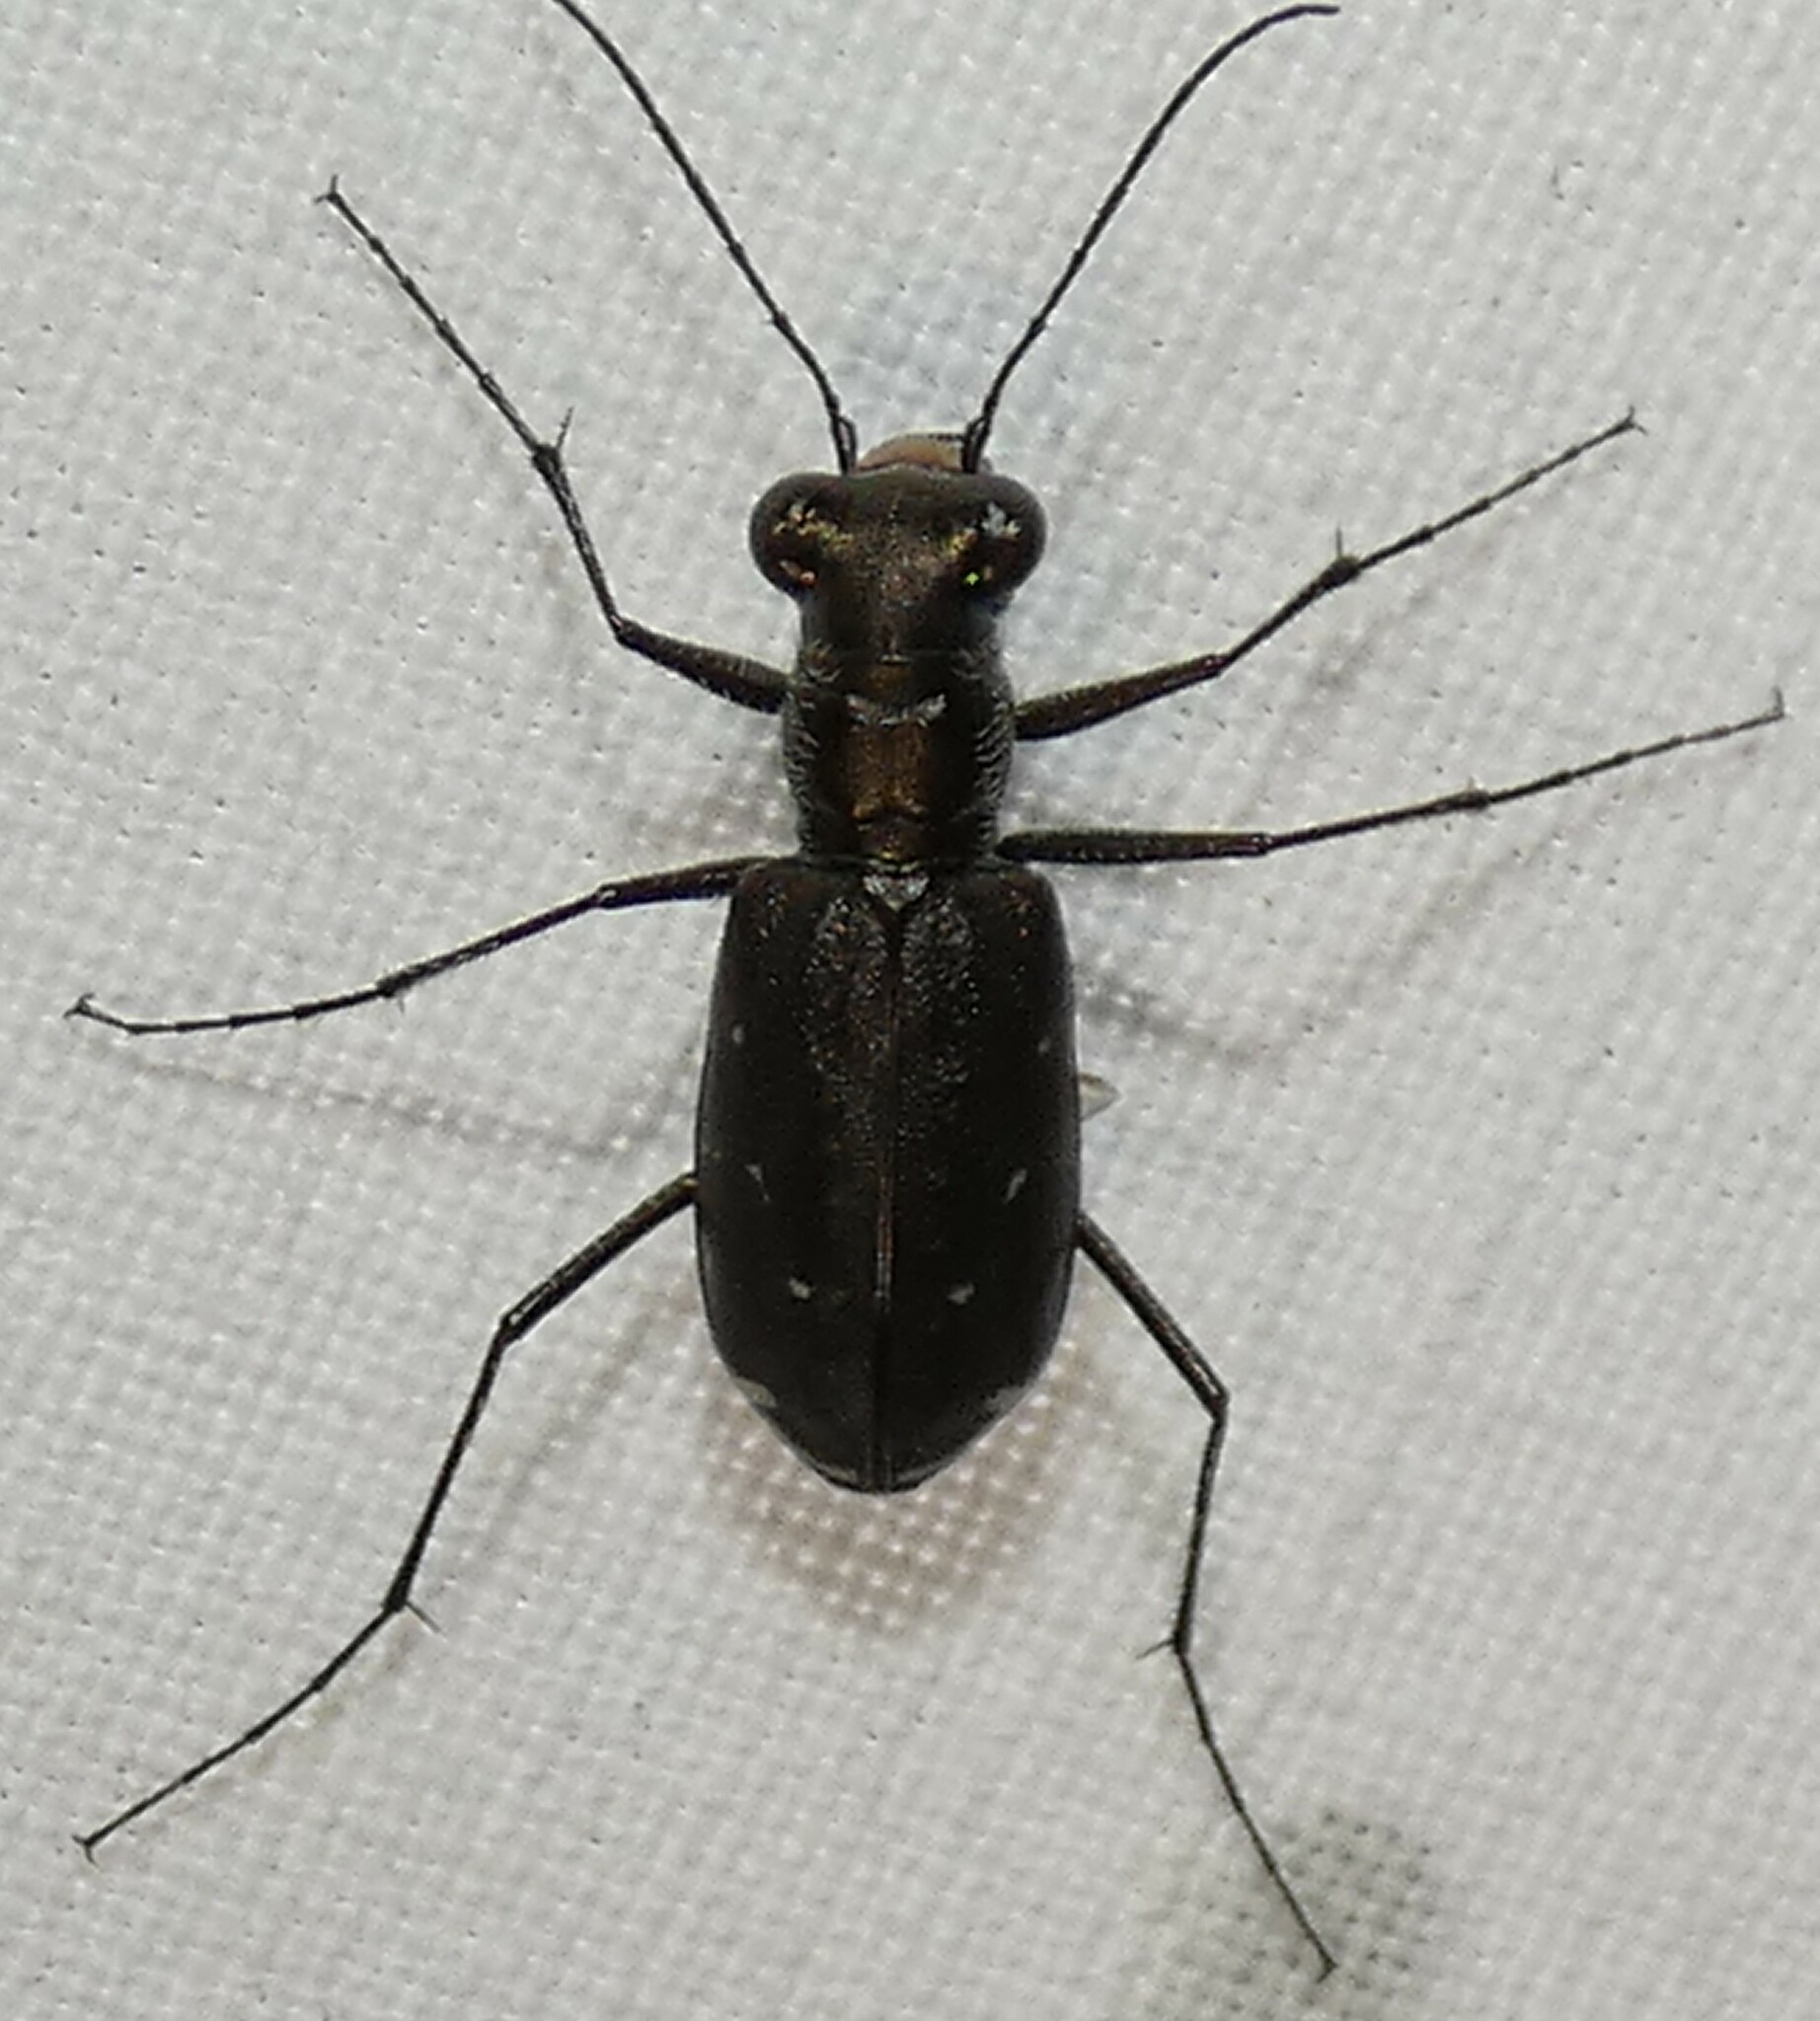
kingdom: Animalia
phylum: Arthropoda
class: Insecta
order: Coleoptera
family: Carabidae
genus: Cicindela
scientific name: Cicindela punctulata
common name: Punctured tiger beetle
